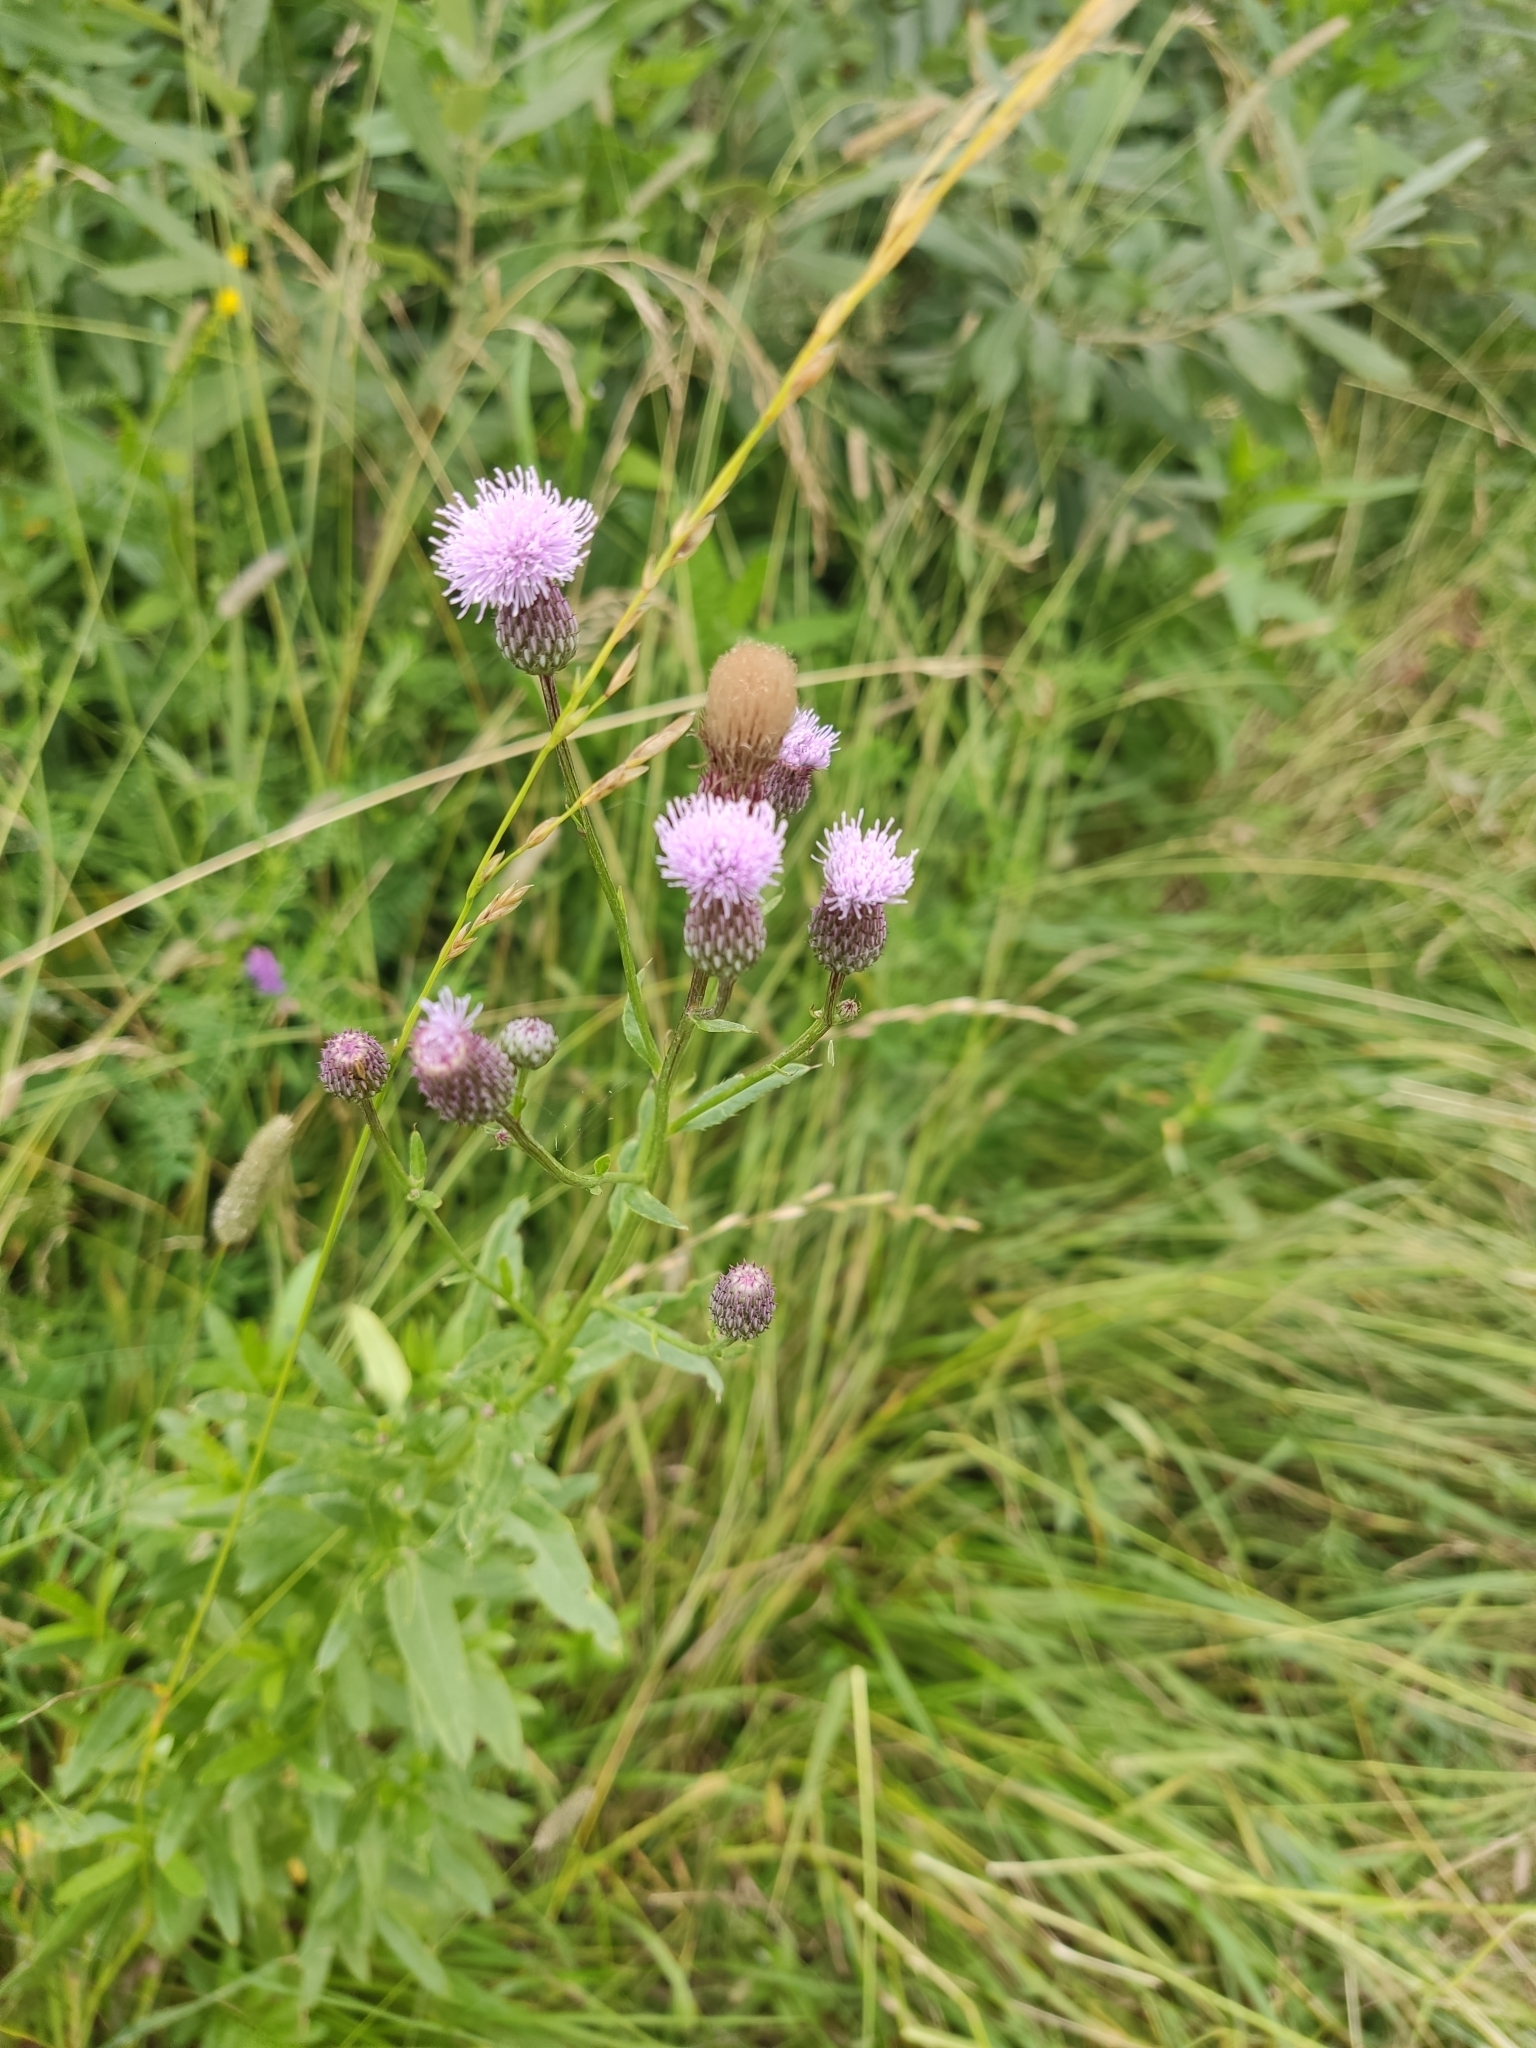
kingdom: Plantae
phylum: Tracheophyta
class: Magnoliopsida
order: Asterales
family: Asteraceae
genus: Cirsium
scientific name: Cirsium arvense
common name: Creeping thistle
